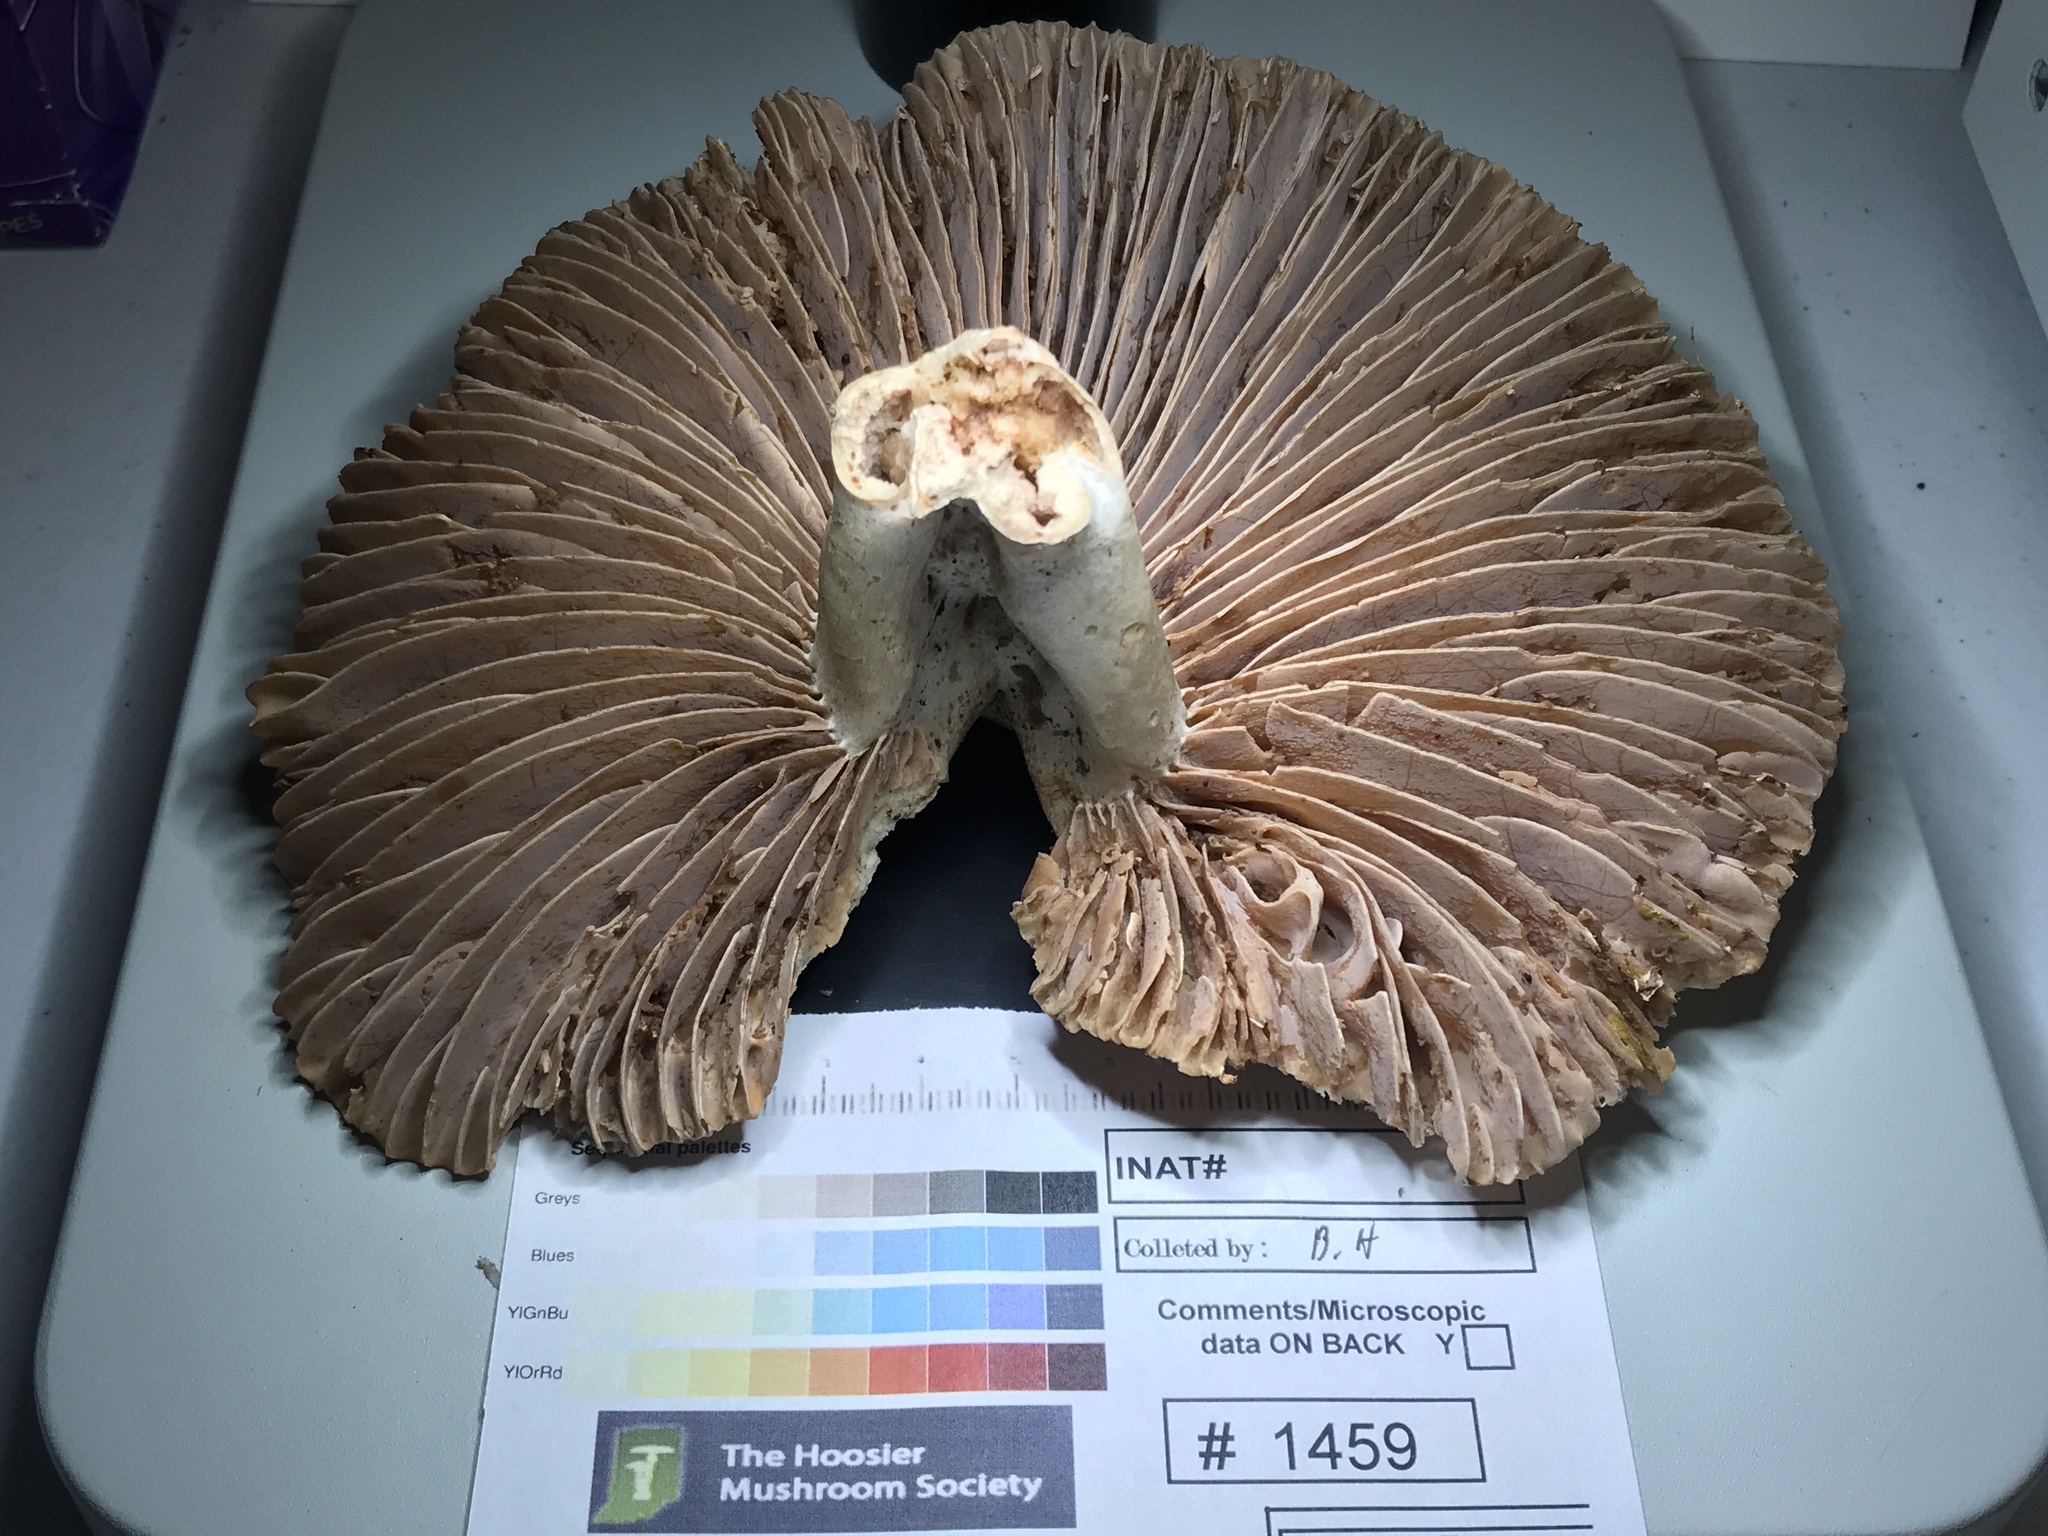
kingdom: Fungi
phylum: Basidiomycota
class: Agaricomycetes
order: Russulales
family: Russulaceae
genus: Russula
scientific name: Russula adusta
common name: Winecork brittlegill
